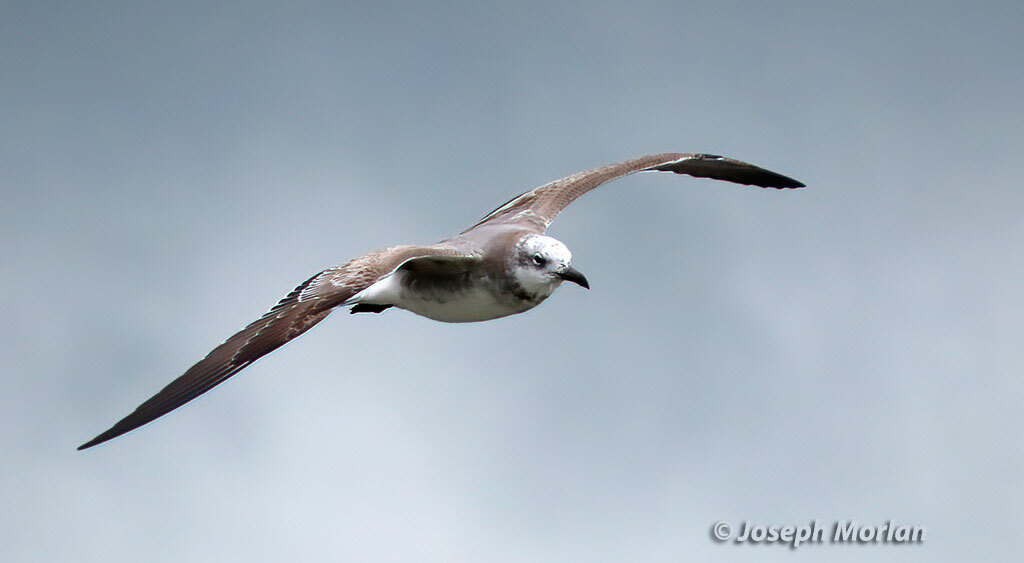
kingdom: Animalia
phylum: Chordata
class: Aves
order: Charadriiformes
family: Laridae
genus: Leucophaeus
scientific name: Leucophaeus atricilla
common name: Laughing gull
